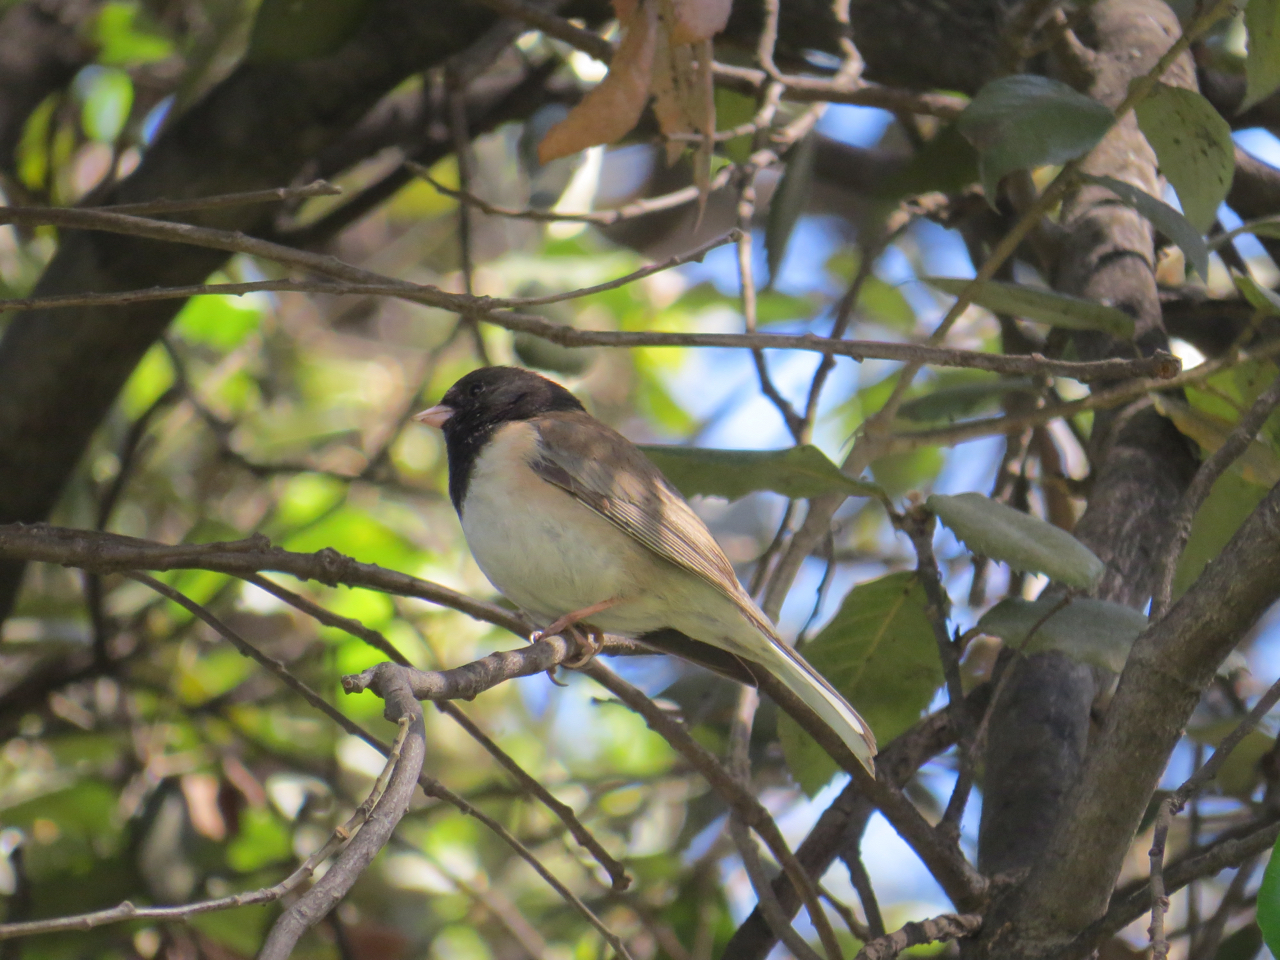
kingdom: Animalia
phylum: Chordata
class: Aves
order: Passeriformes
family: Passerellidae
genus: Junco
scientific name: Junco hyemalis
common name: Dark-eyed junco
